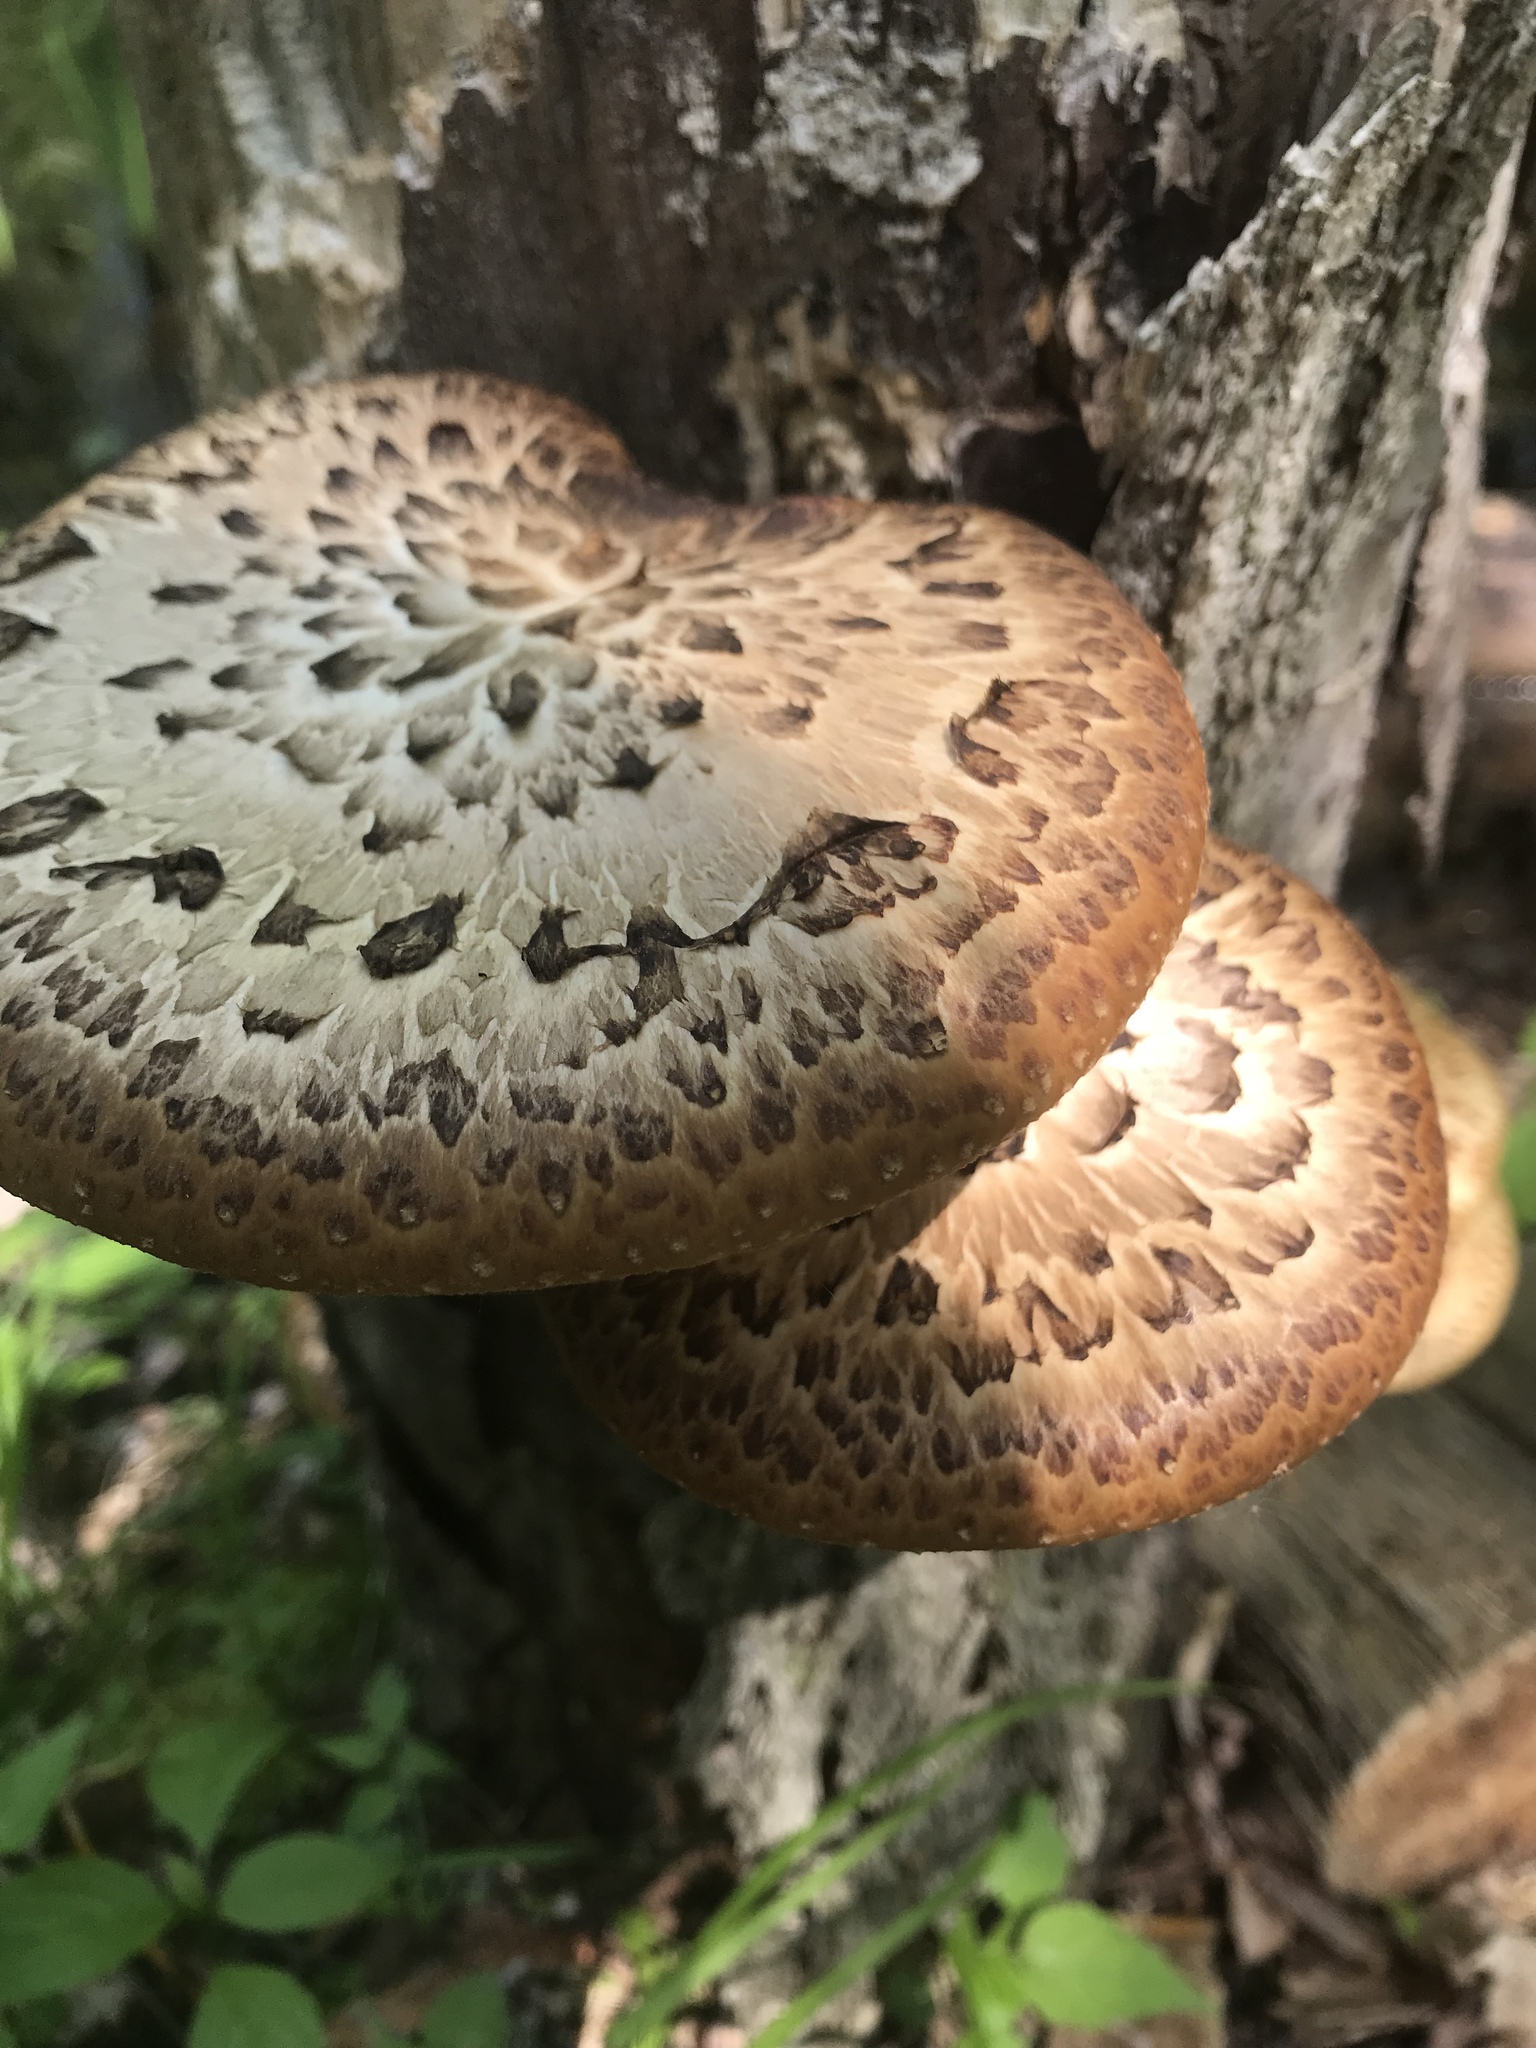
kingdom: Fungi
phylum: Basidiomycota
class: Agaricomycetes
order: Polyporales
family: Polyporaceae
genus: Cerioporus
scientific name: Cerioporus squamosus
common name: Dryad's saddle
